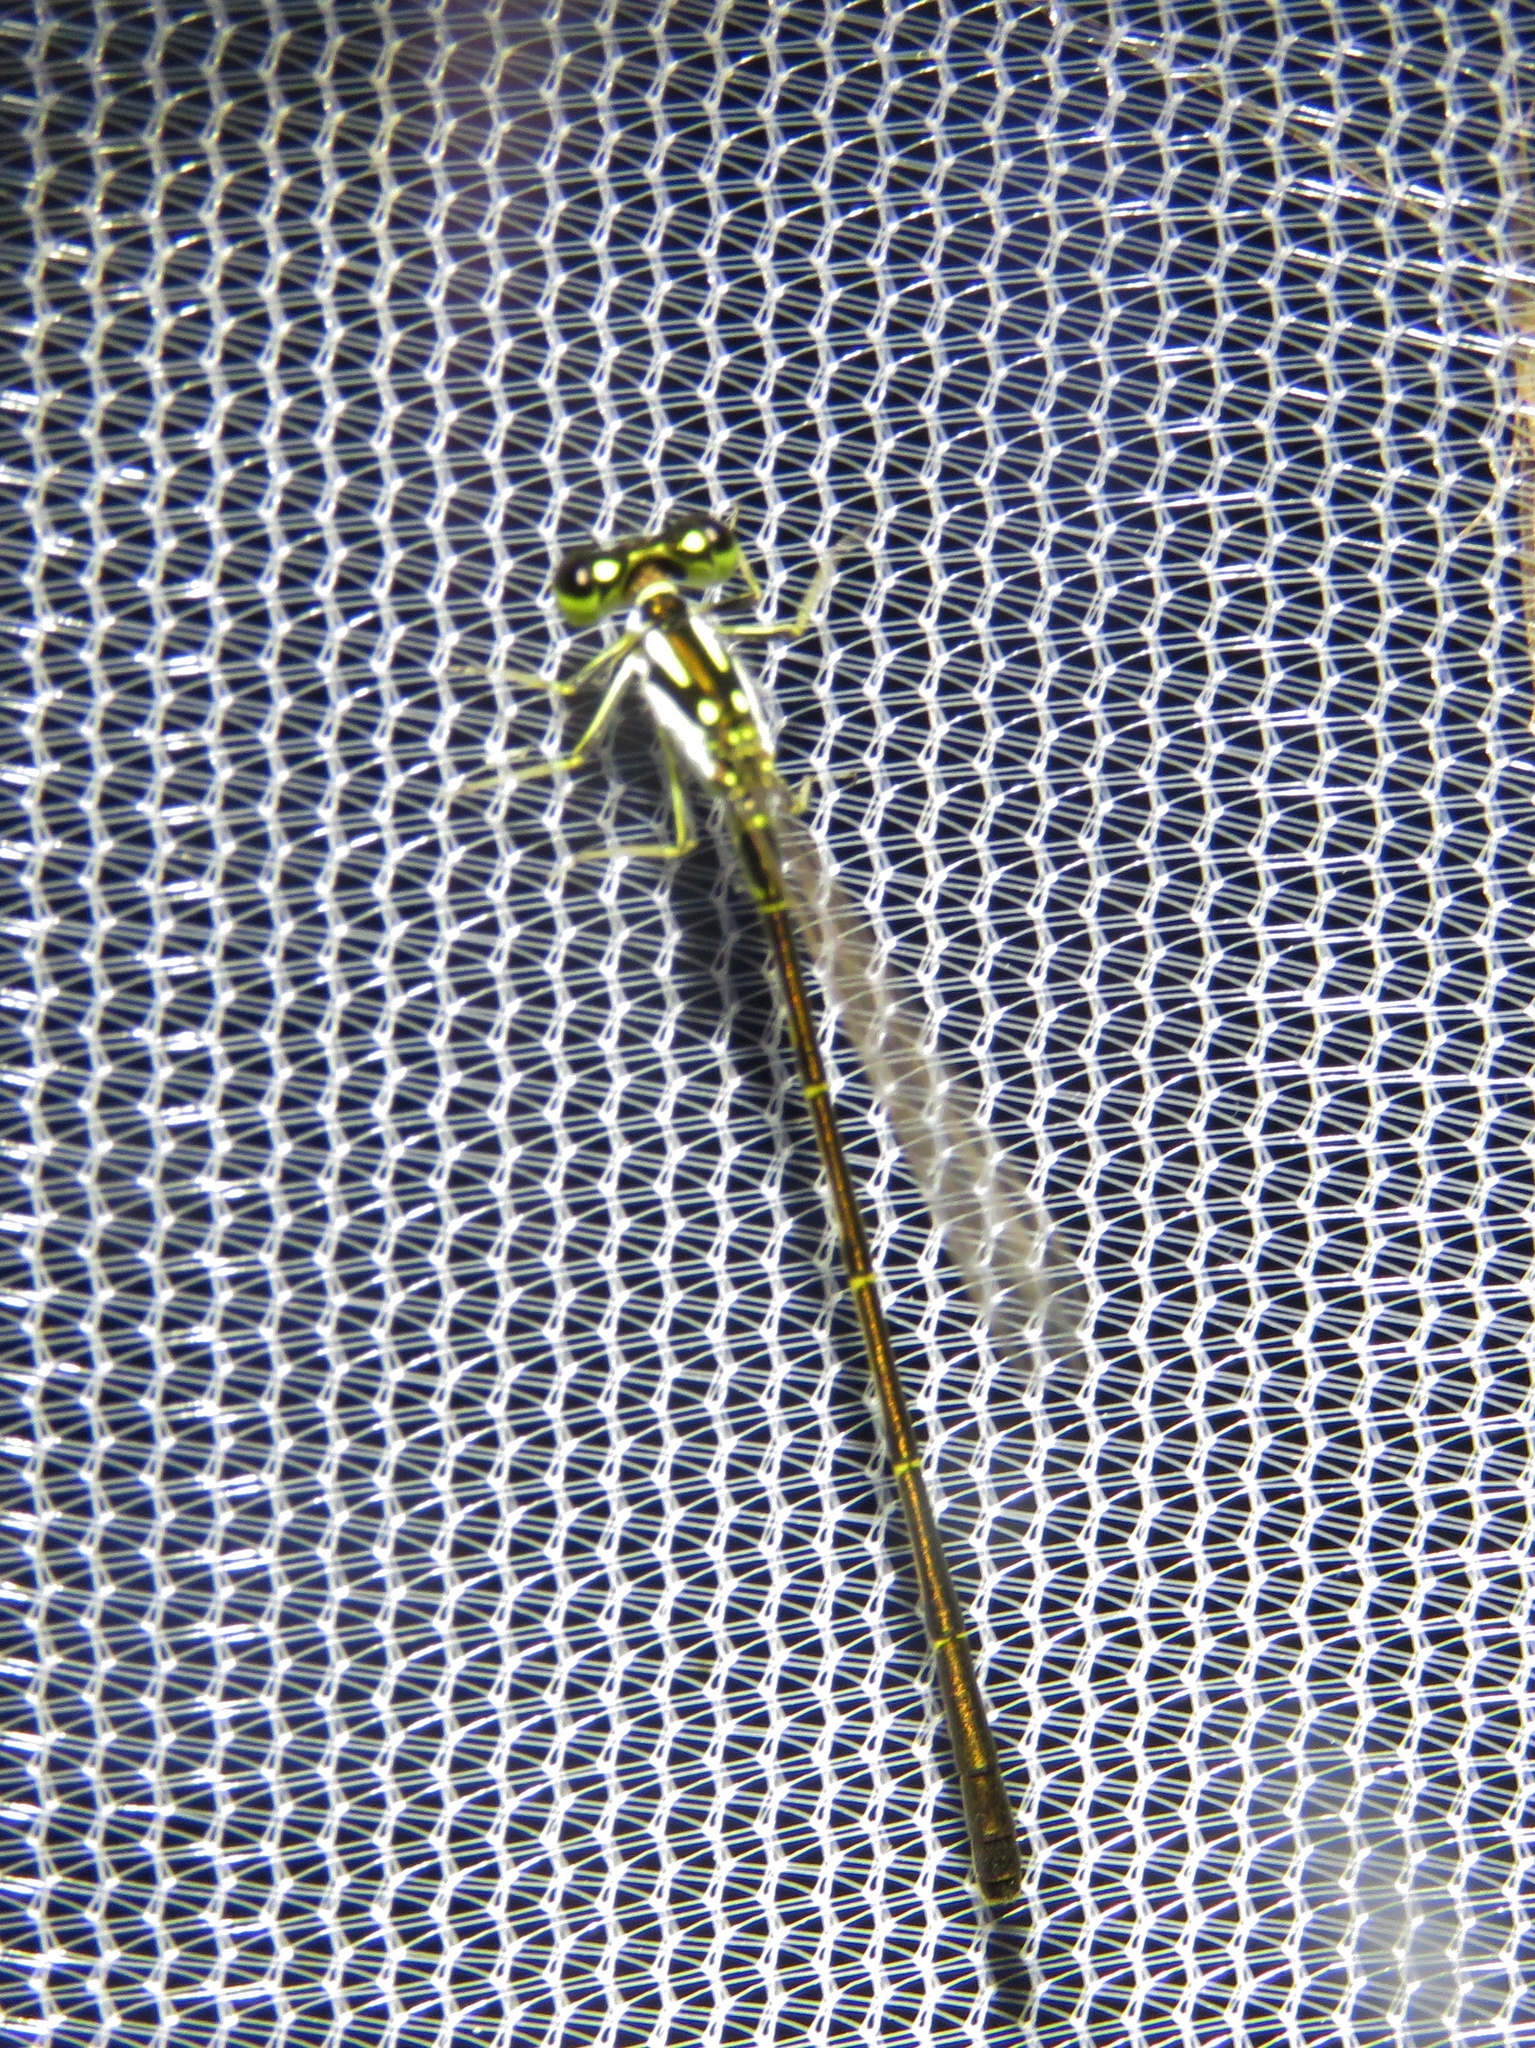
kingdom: Animalia
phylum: Arthropoda
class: Insecta
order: Odonata
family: Coenagrionidae
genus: Ischnura
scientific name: Ischnura posita
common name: Fragile forktail
